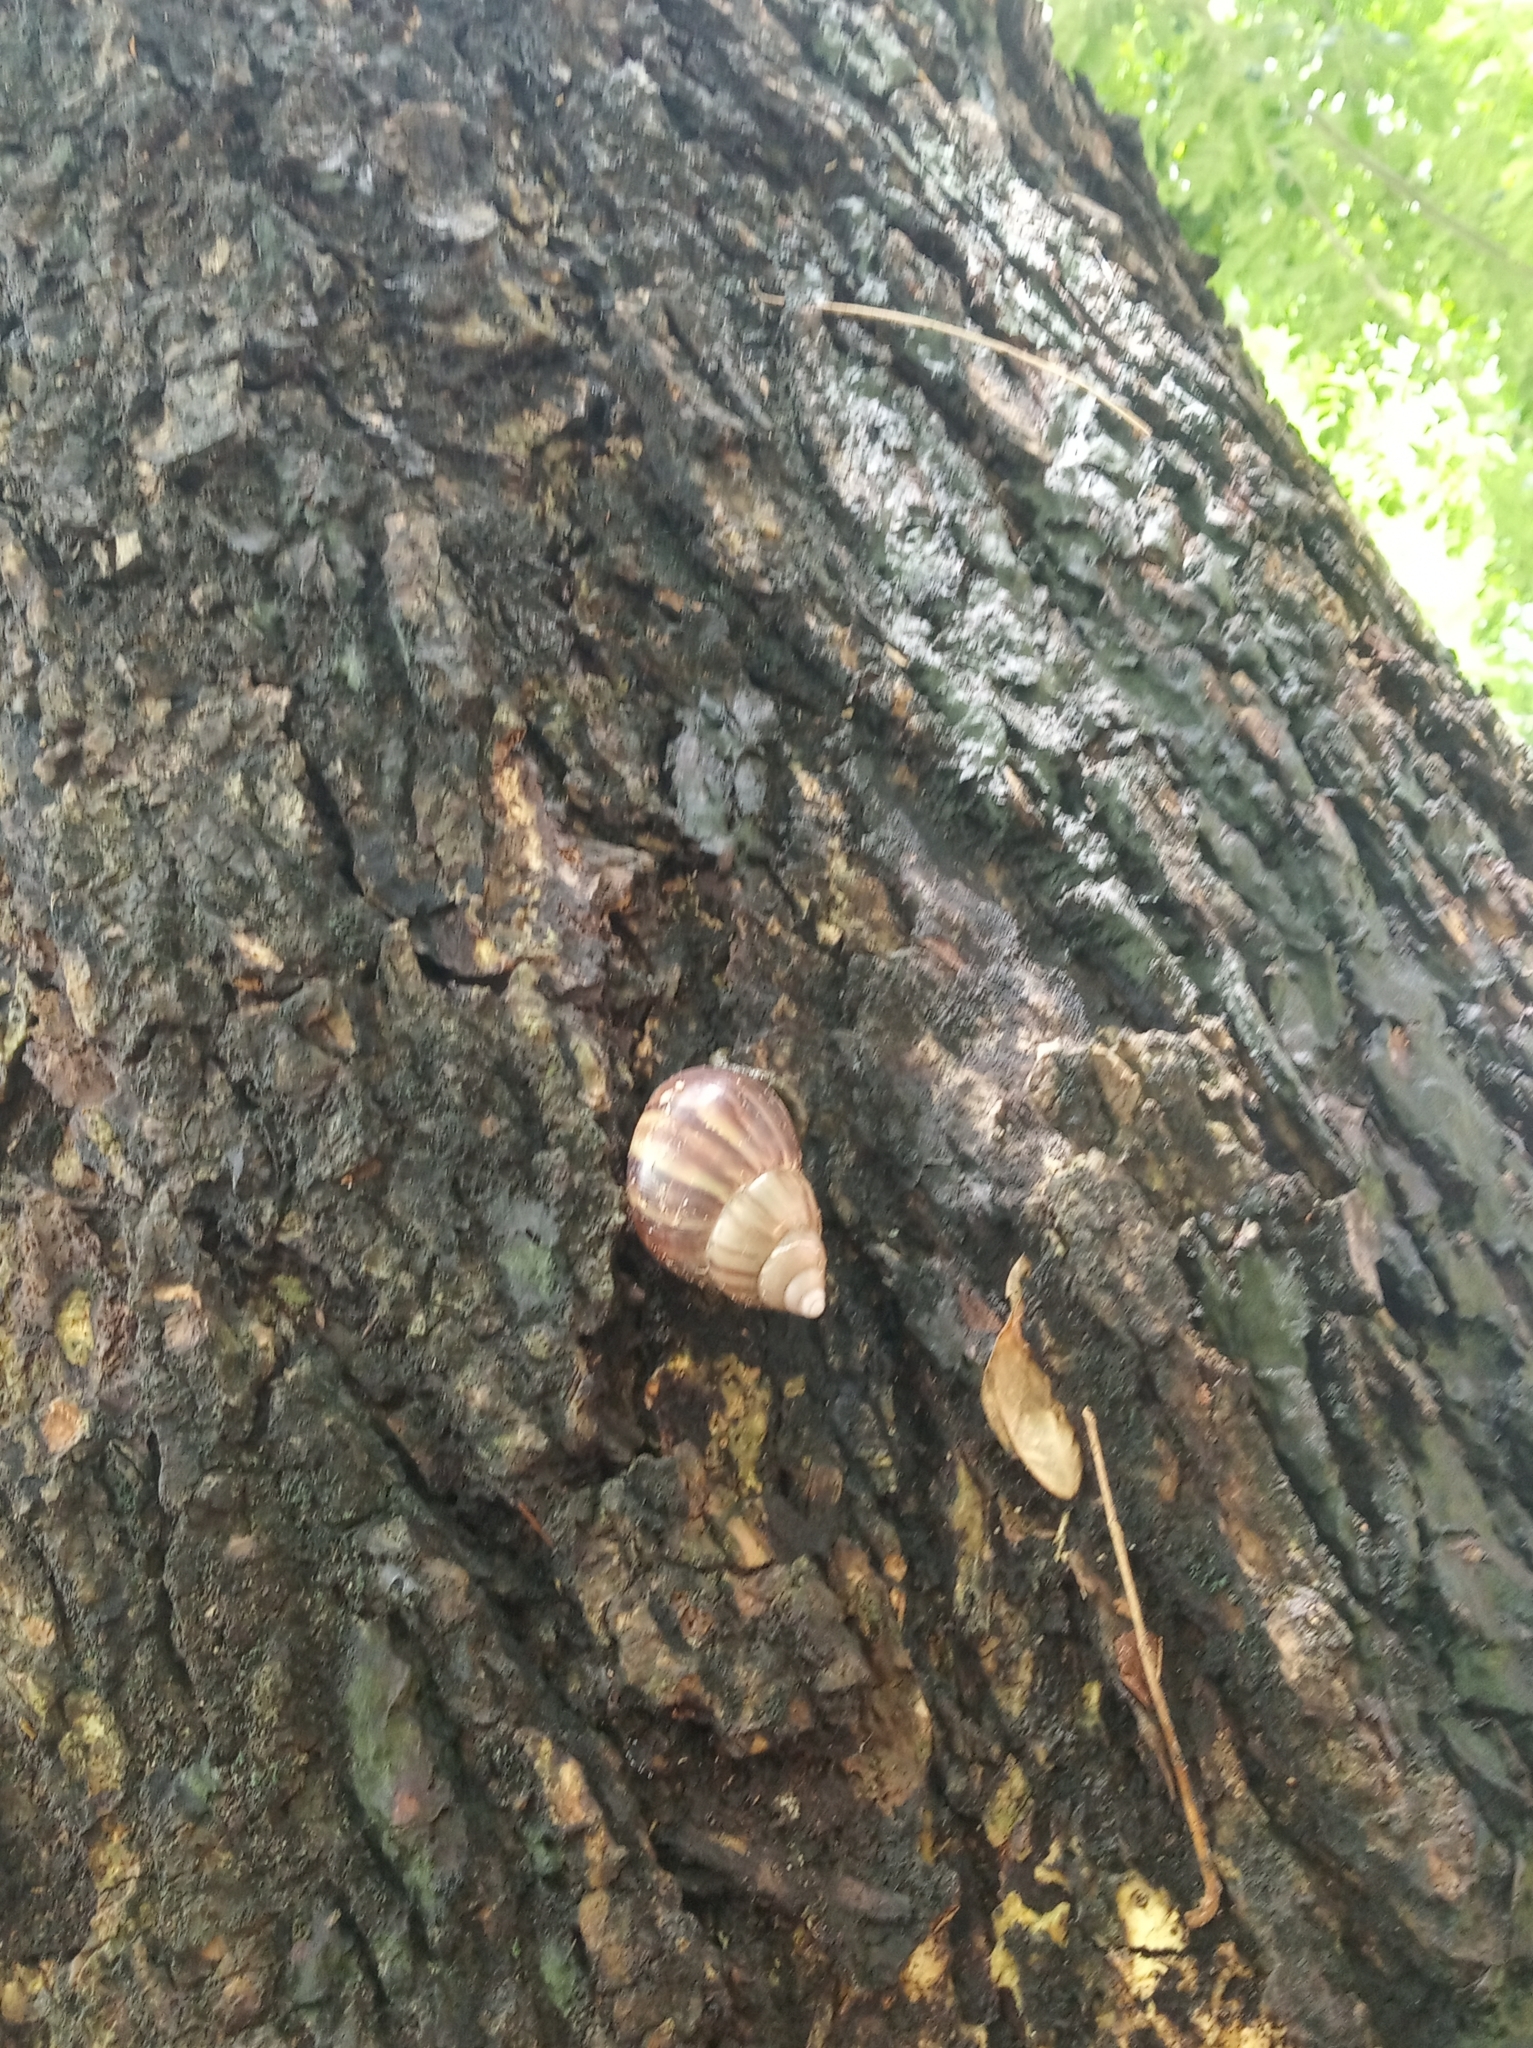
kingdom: Animalia
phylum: Mollusca
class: Gastropoda
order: Stylommatophora
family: Achatinidae
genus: Lissachatina
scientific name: Lissachatina fulica
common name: Giant african snail
